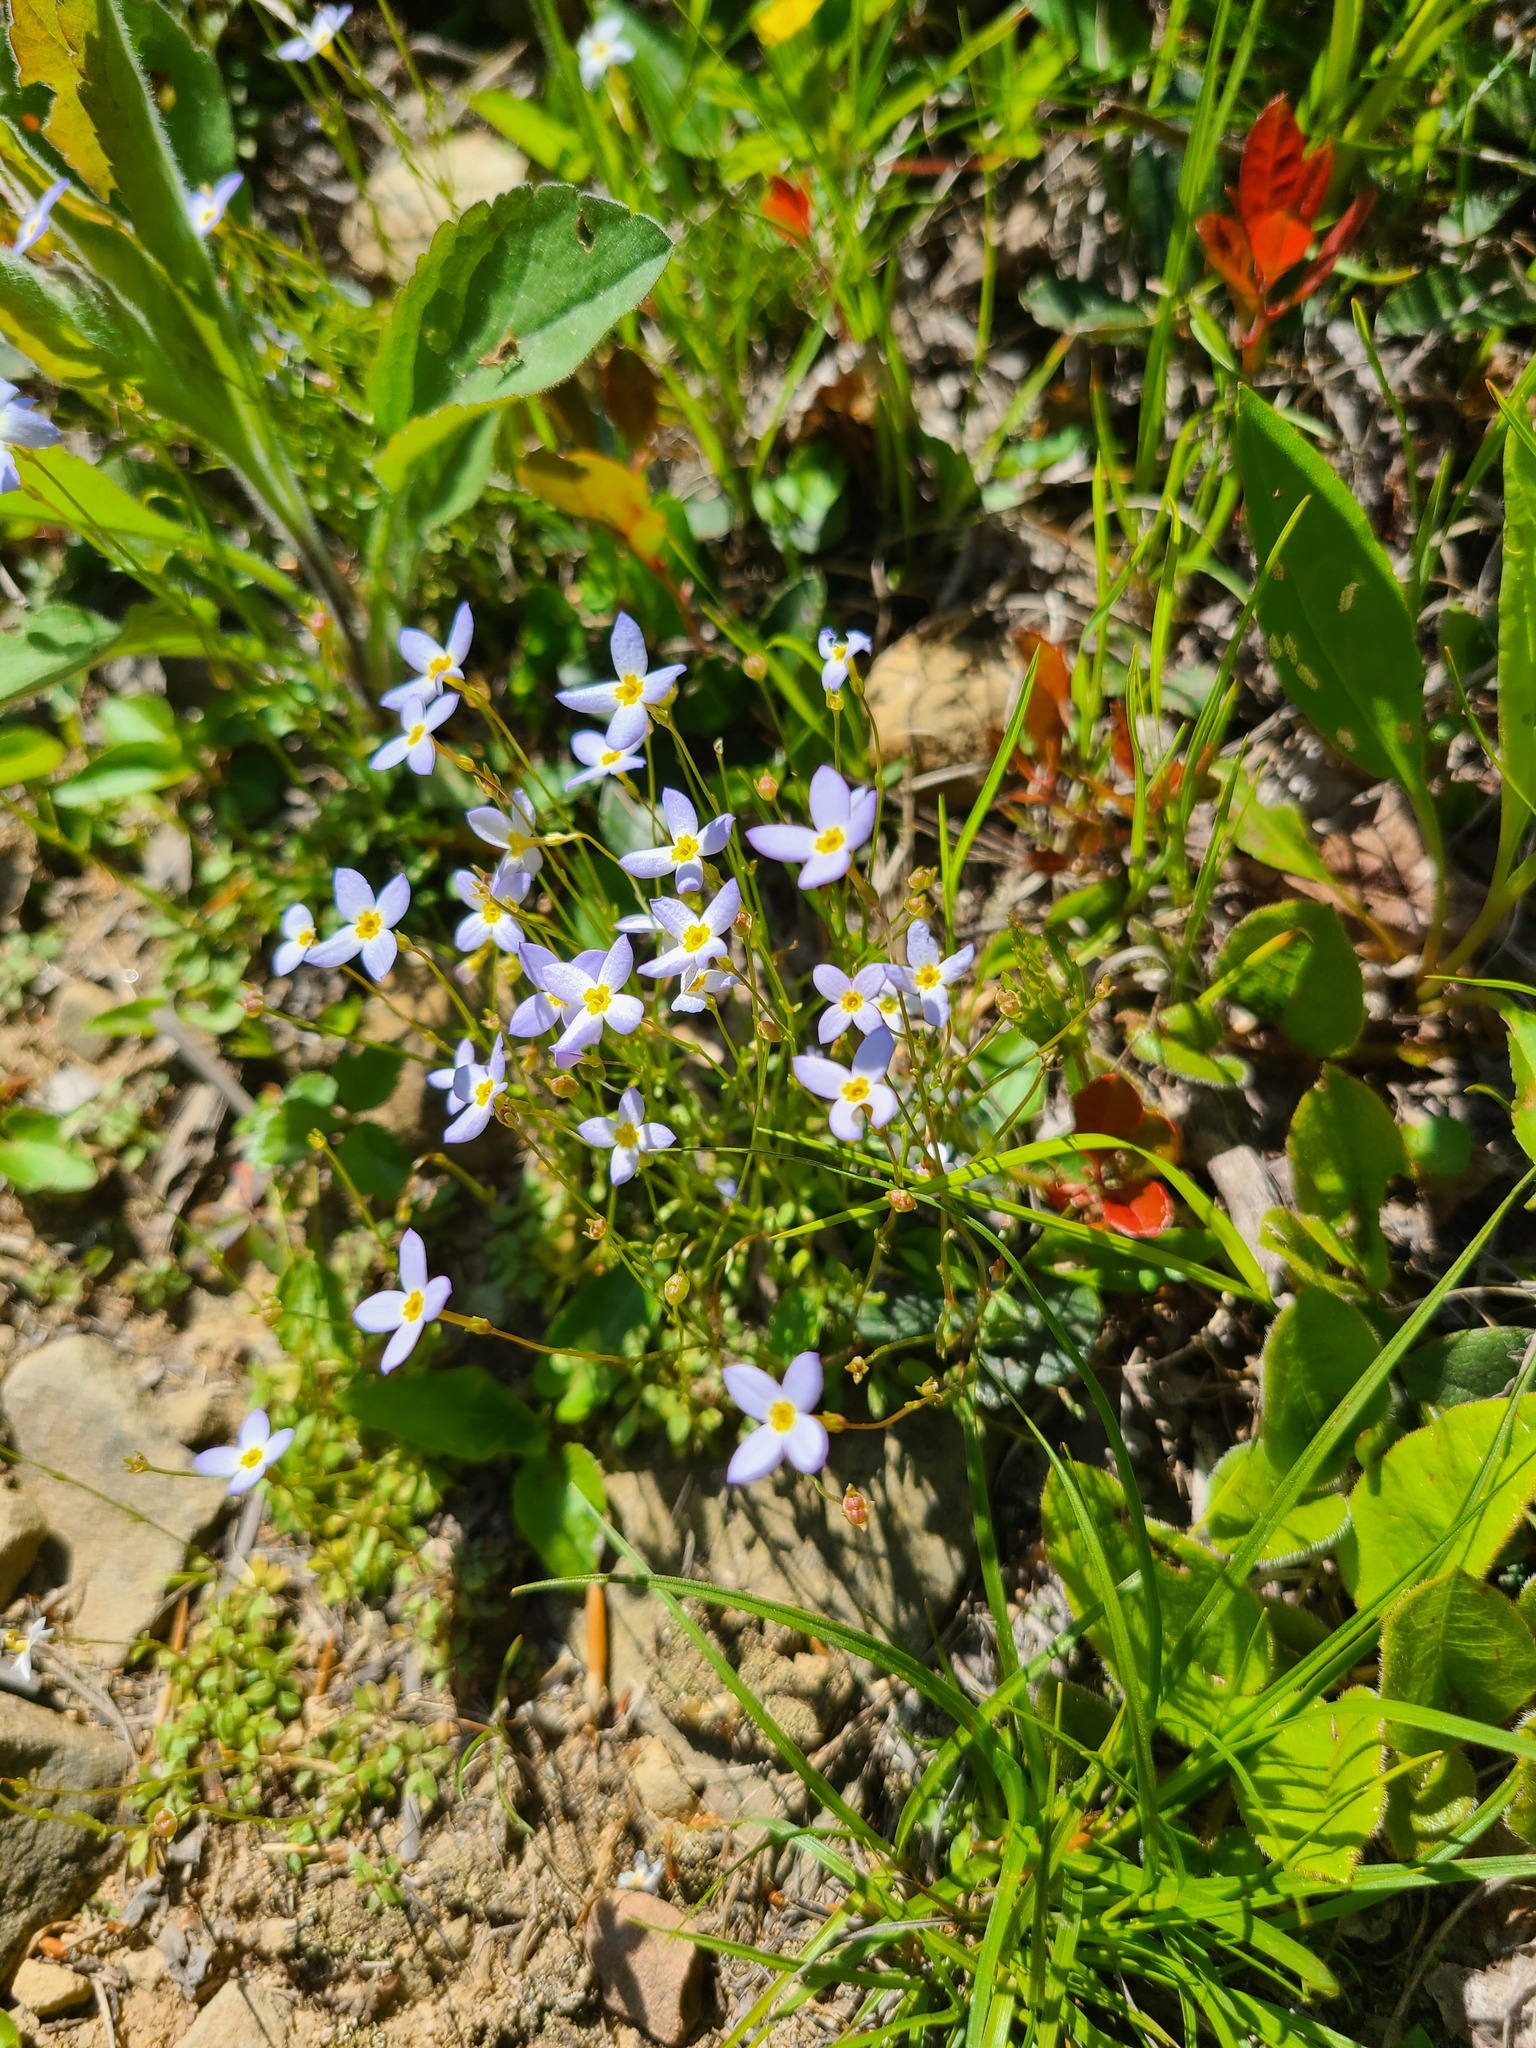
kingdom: Plantae
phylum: Tracheophyta
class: Magnoliopsida
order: Gentianales
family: Rubiaceae
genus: Houstonia
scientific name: Houstonia caerulea
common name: Bluets
